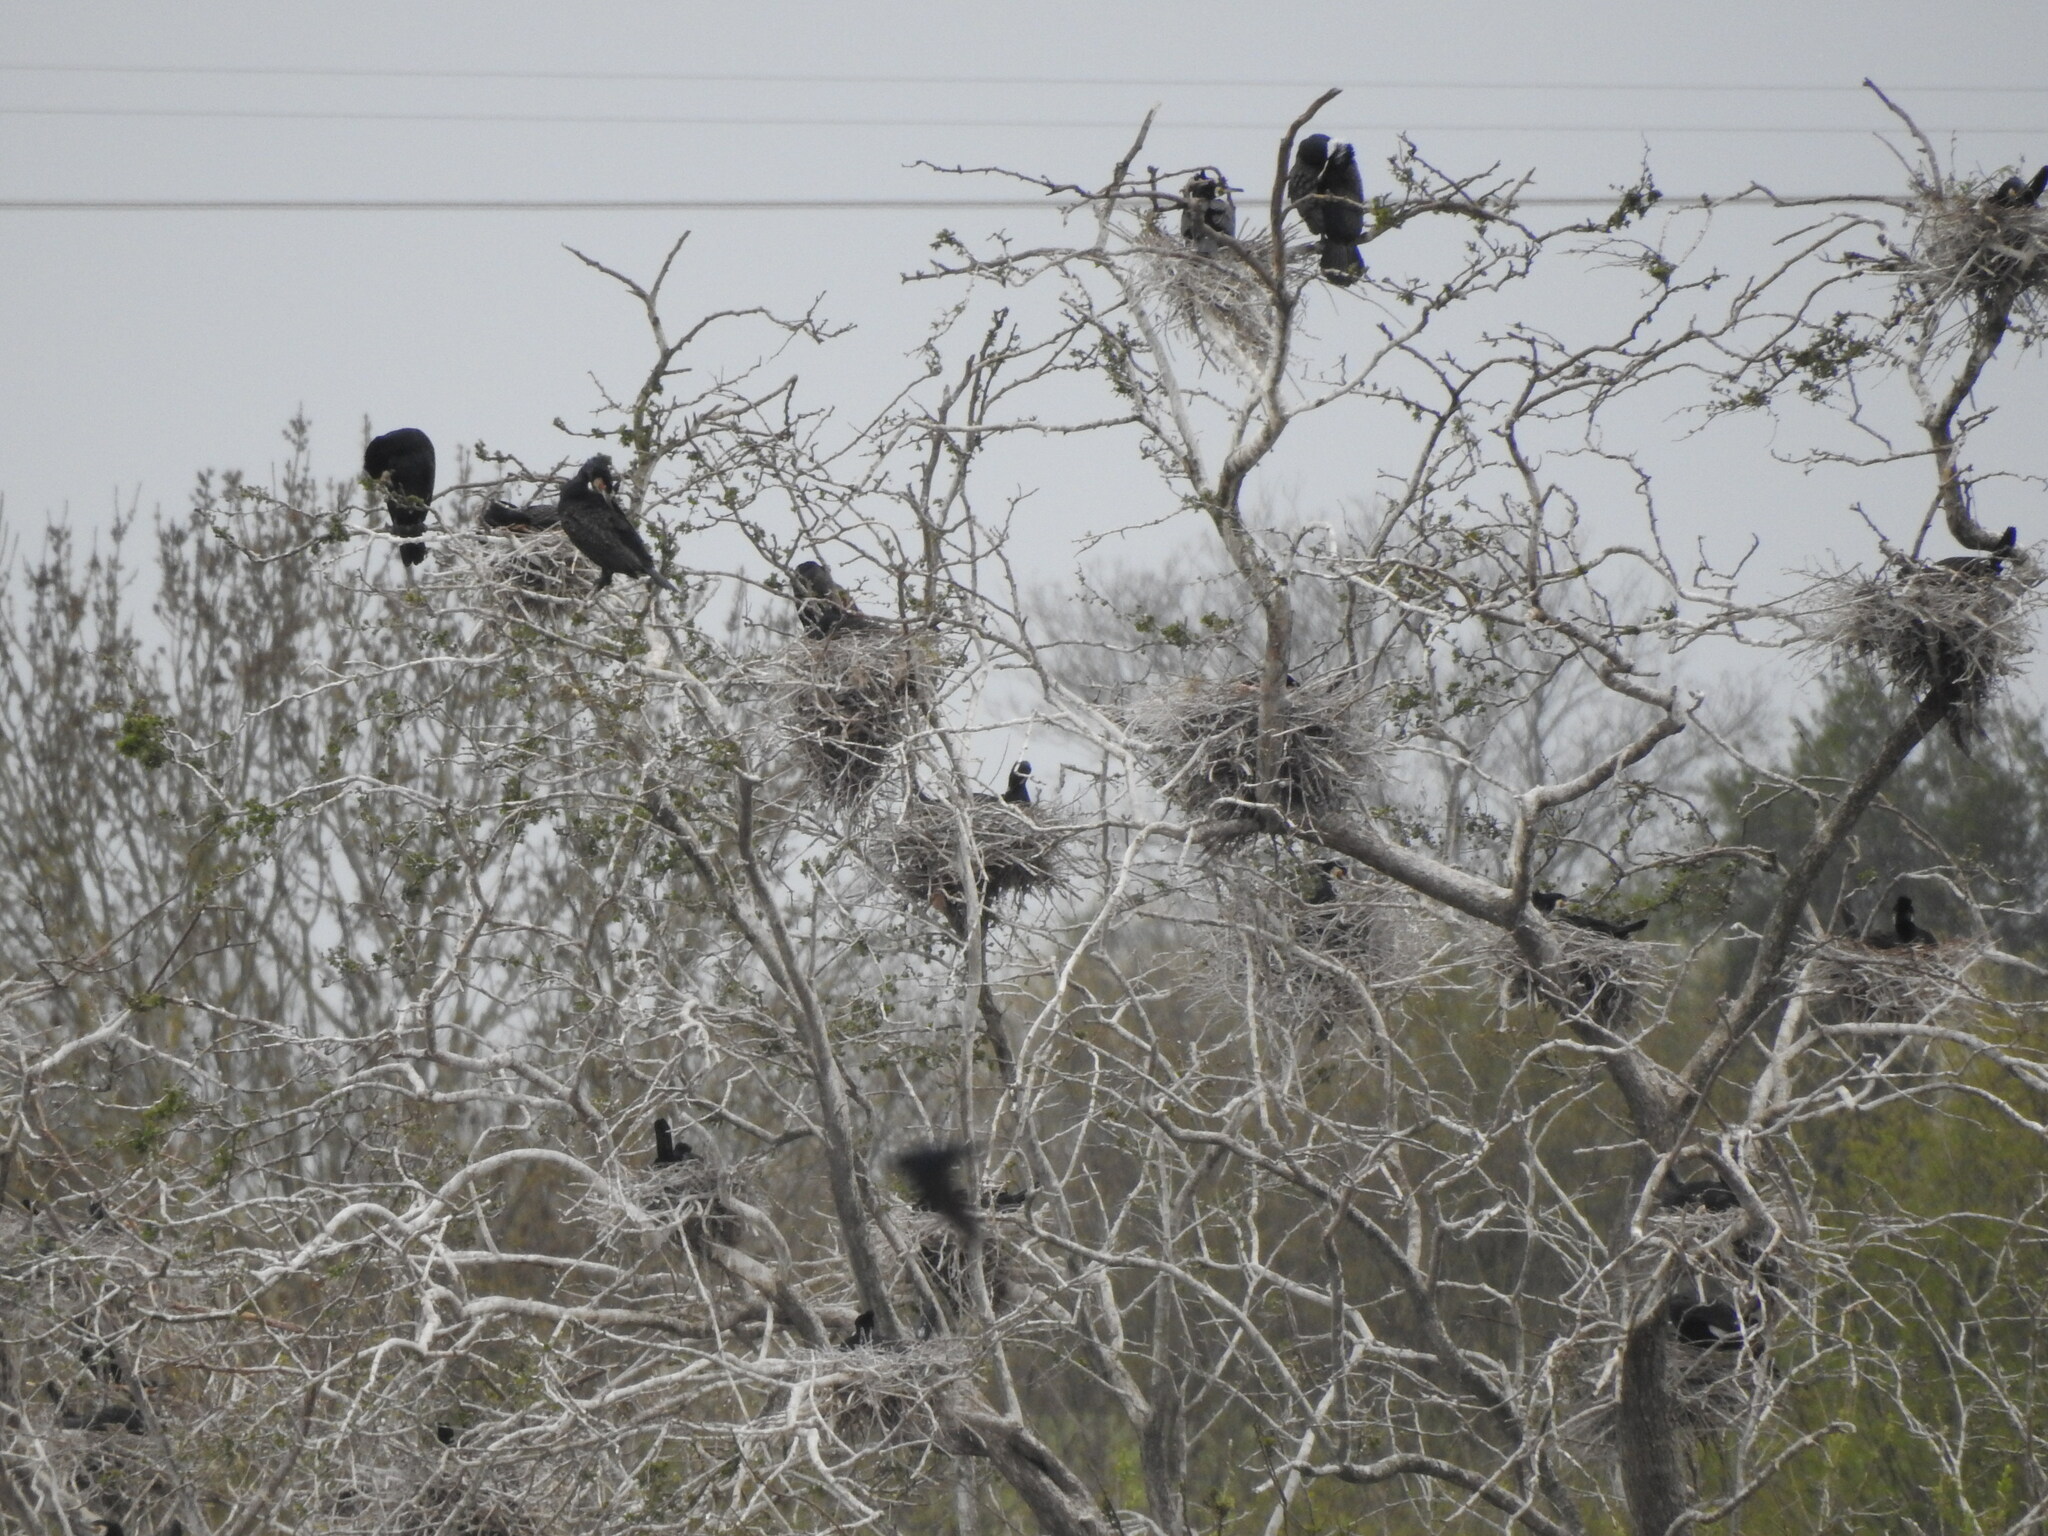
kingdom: Animalia
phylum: Chordata
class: Aves
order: Suliformes
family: Phalacrocoracidae
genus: Phalacrocorax
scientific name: Phalacrocorax carbo
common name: Great cormorant
